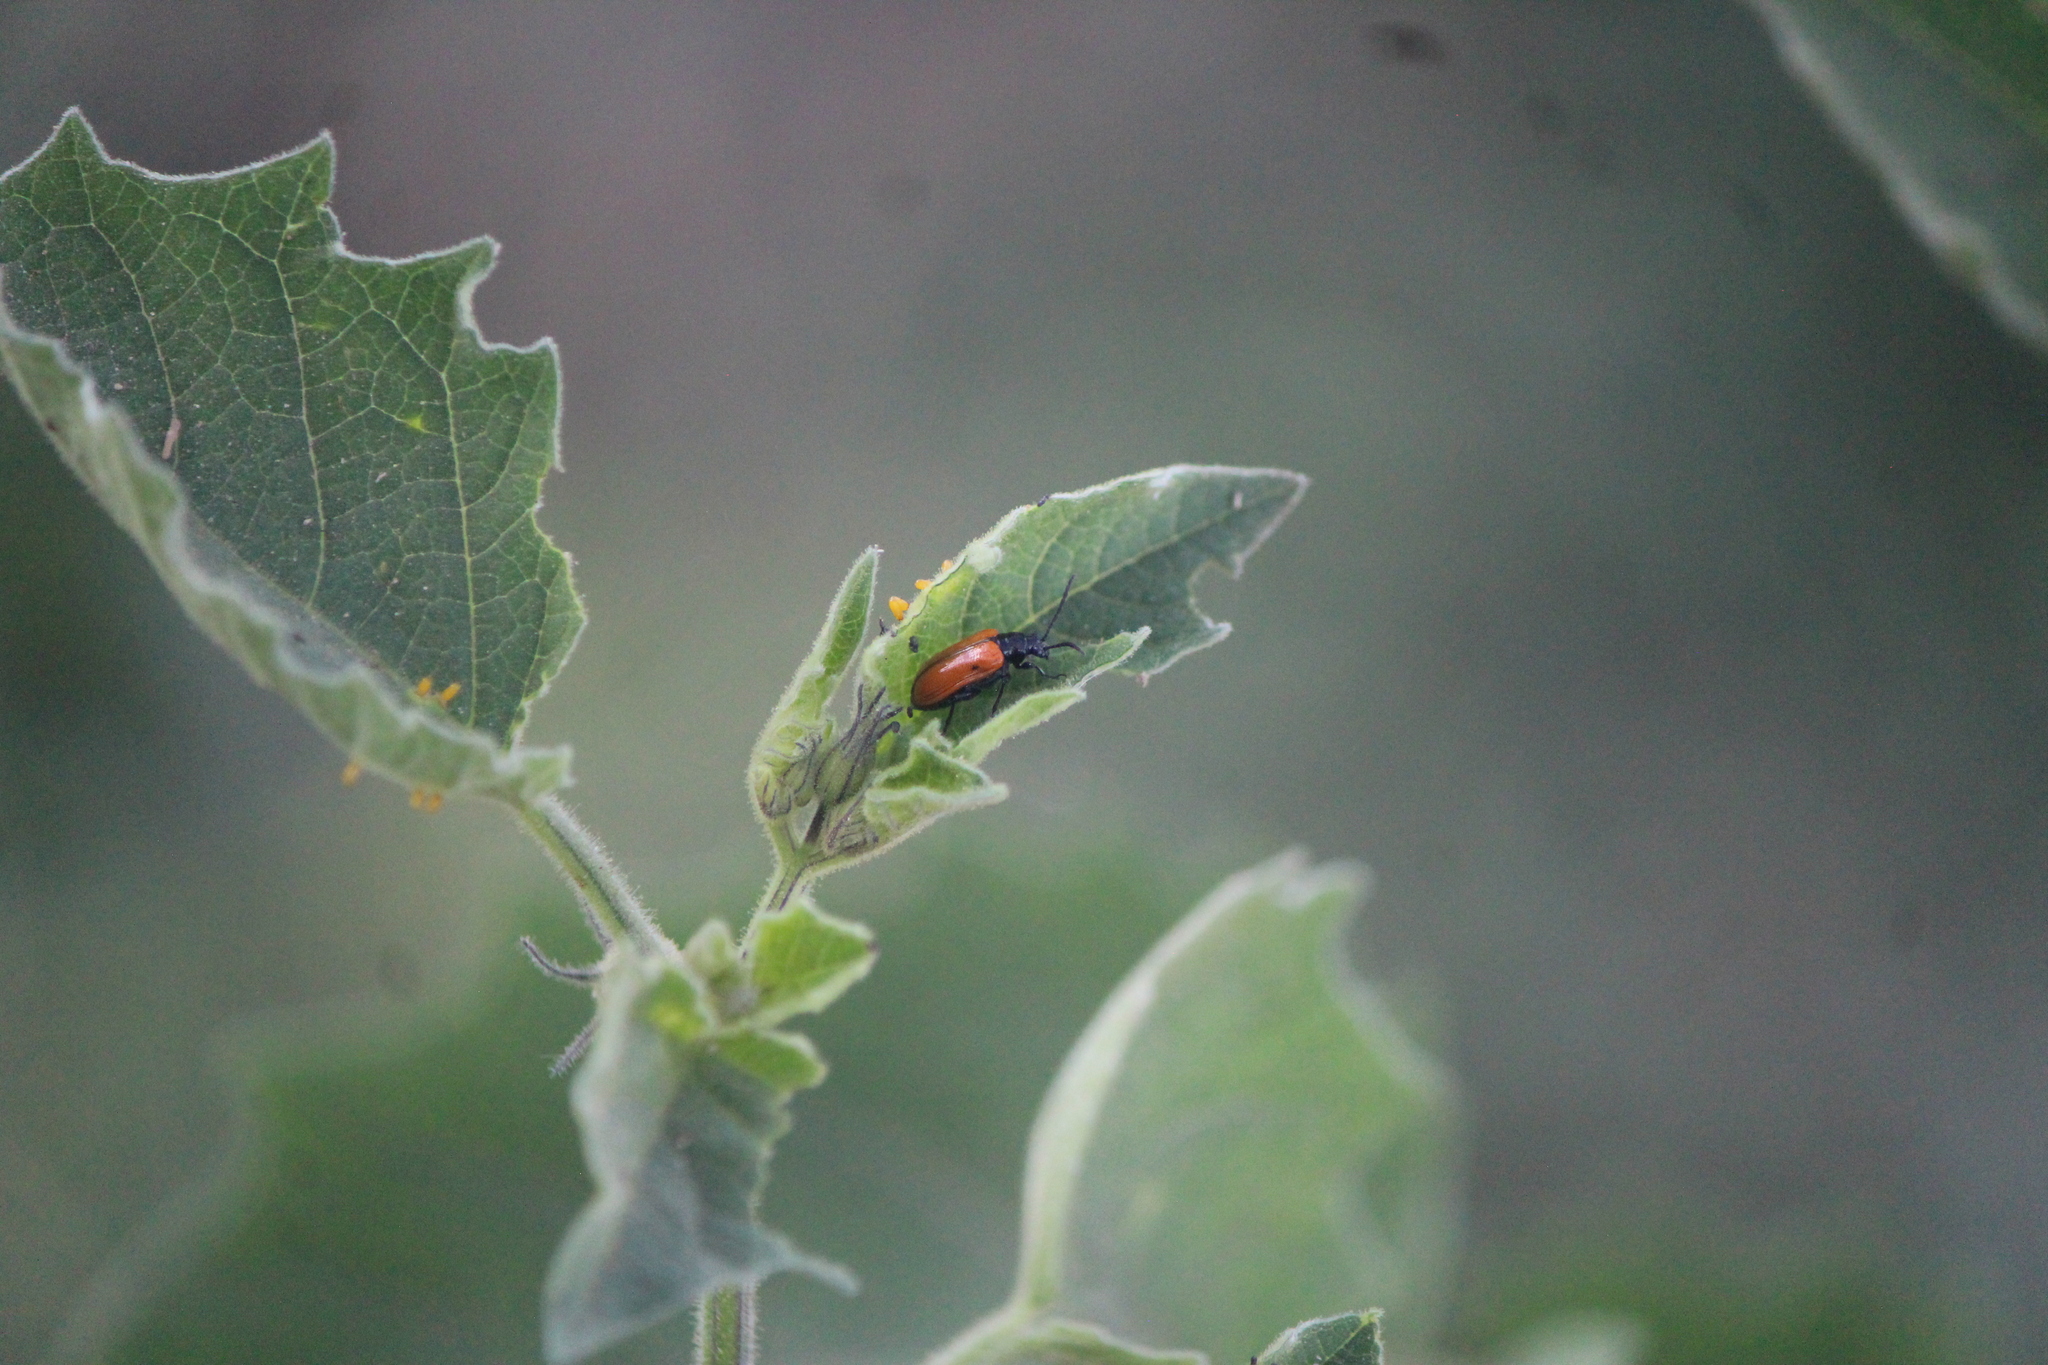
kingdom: Animalia
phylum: Arthropoda
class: Insecta
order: Coleoptera
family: Chrysomelidae
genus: Lema
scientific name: Lema confusa
